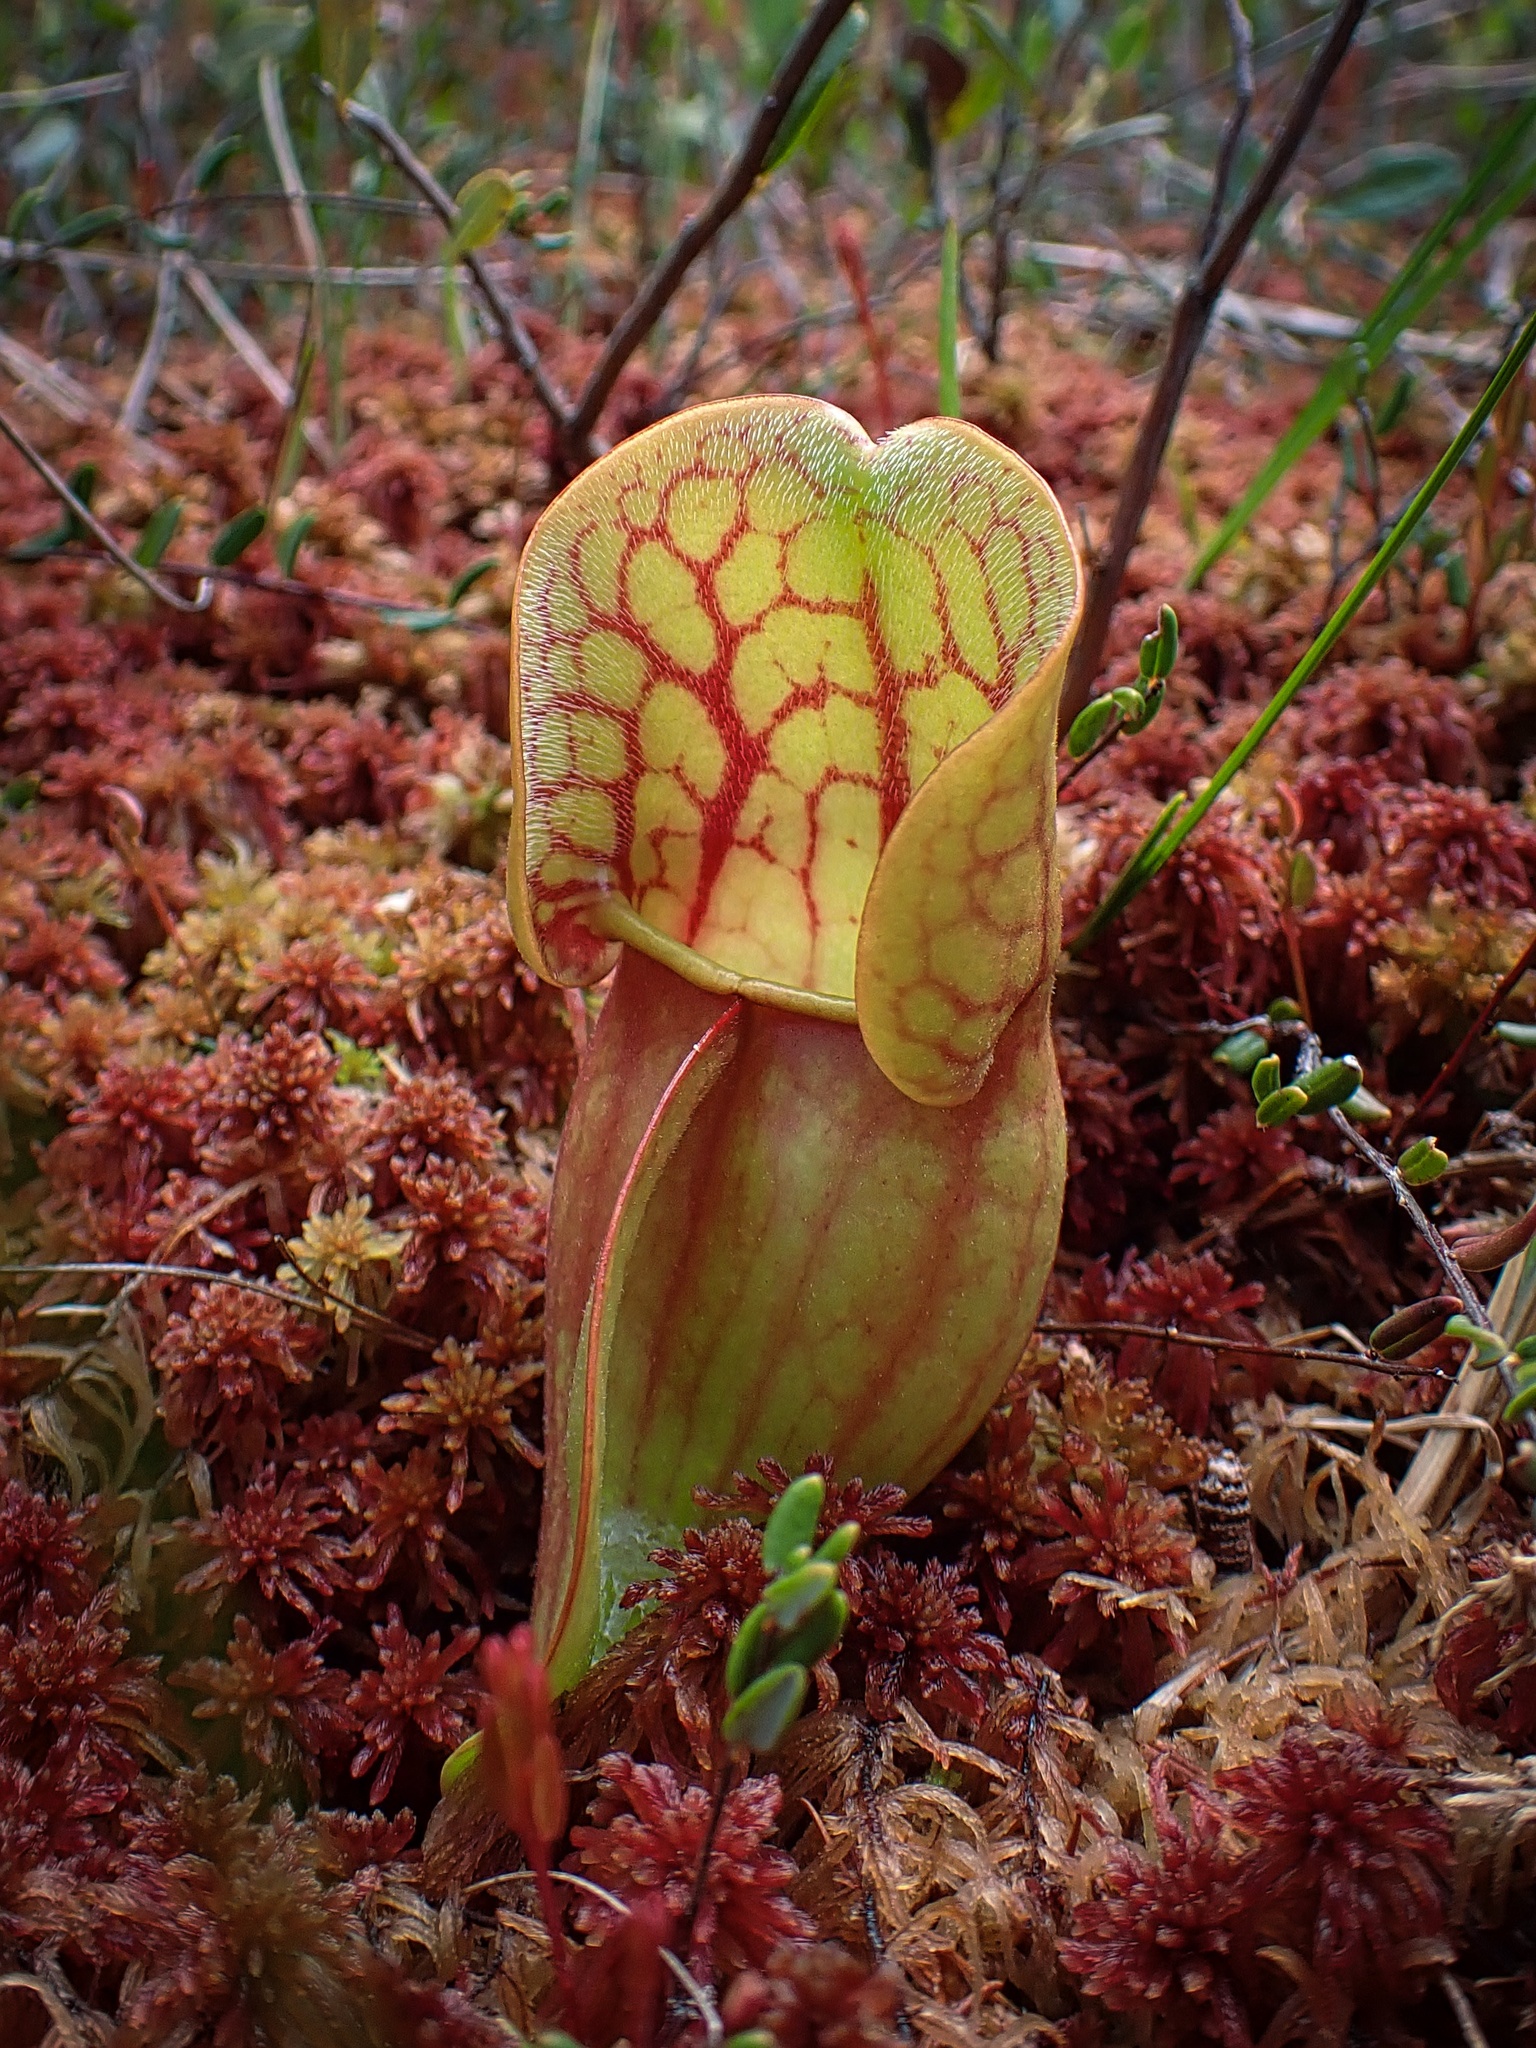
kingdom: Plantae
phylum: Tracheophyta
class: Magnoliopsida
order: Ericales
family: Sarraceniaceae
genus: Sarracenia
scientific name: Sarracenia purpurea
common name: Pitcherplant
